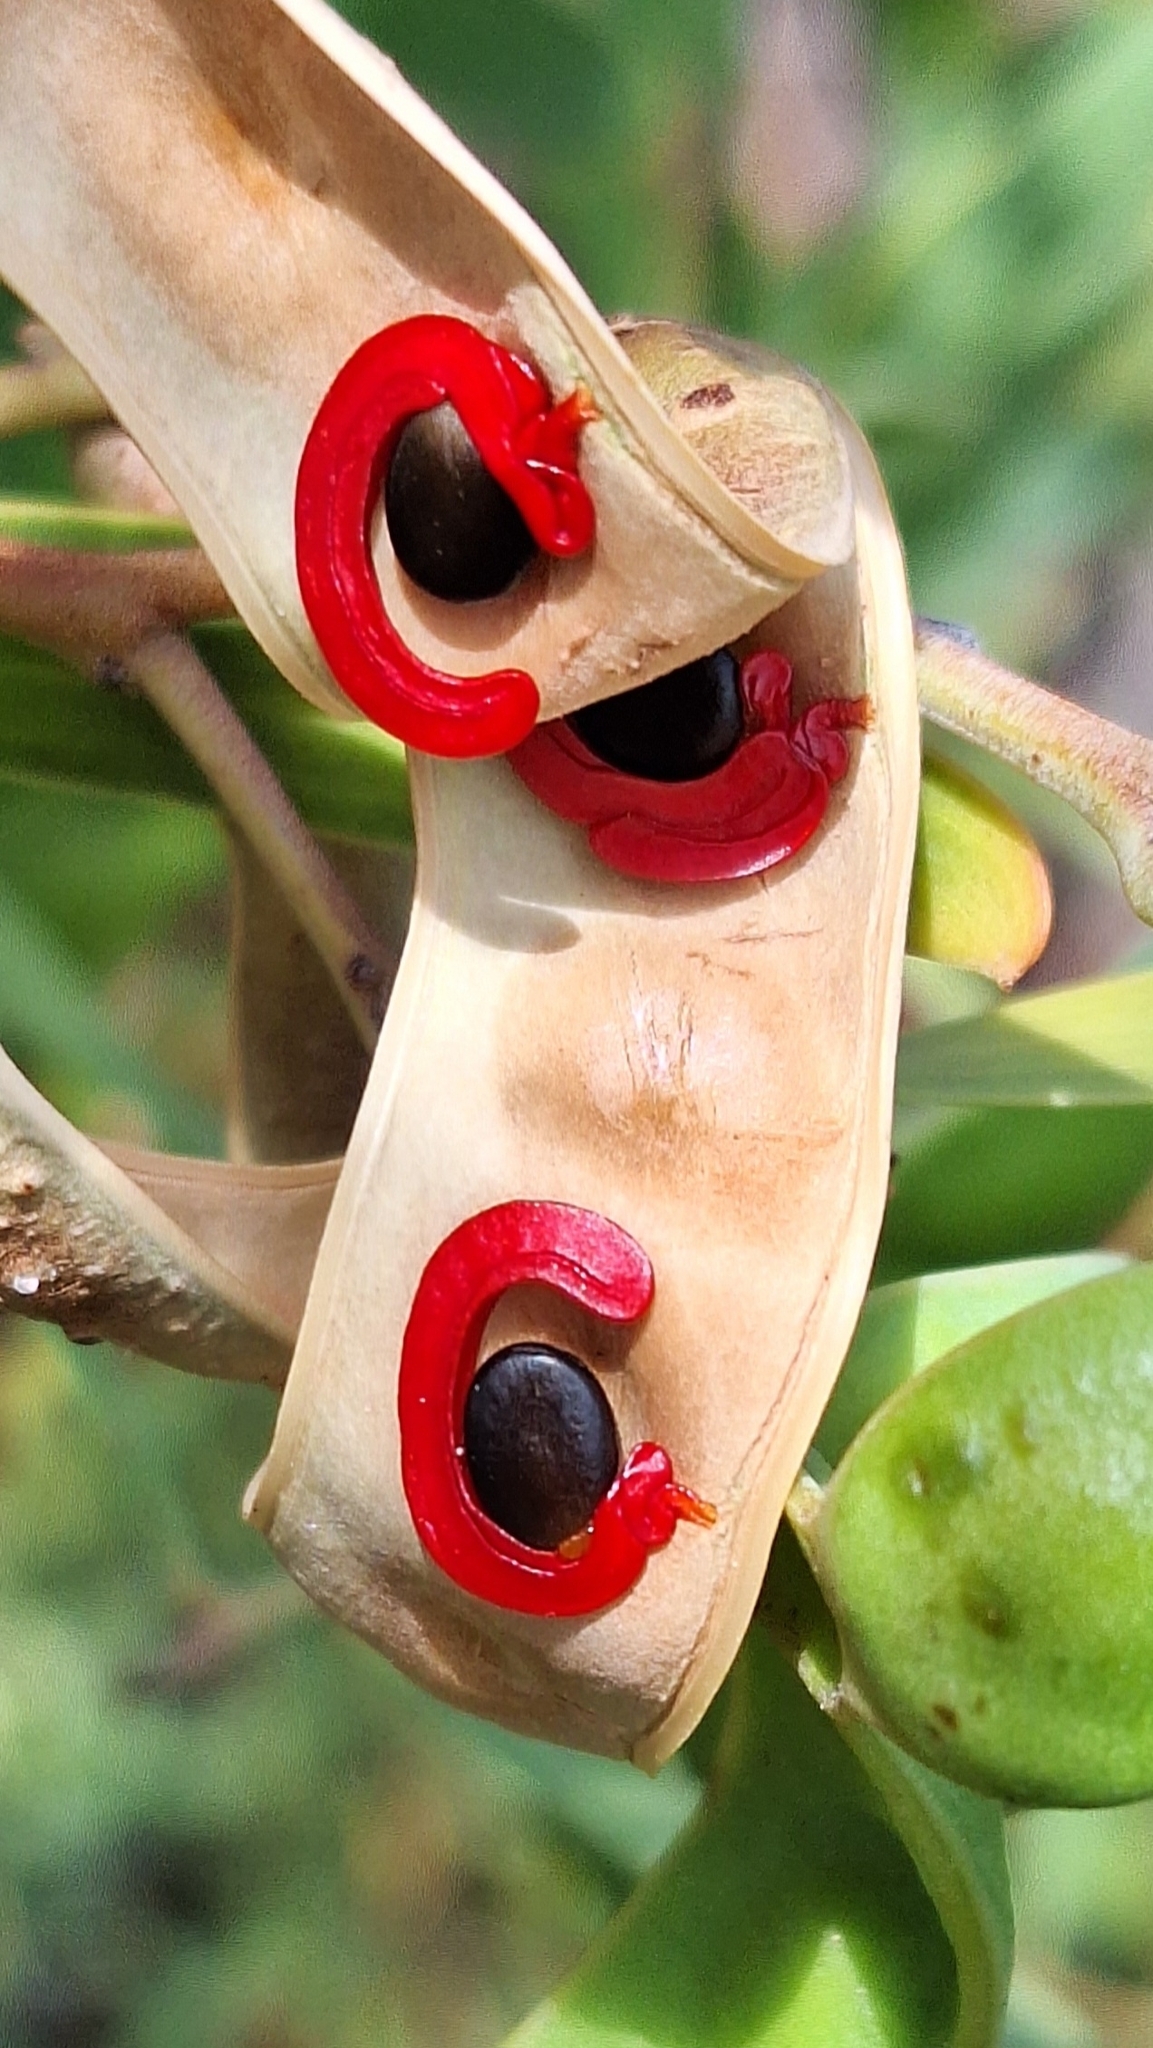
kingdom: Plantae
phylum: Tracheophyta
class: Magnoliopsida
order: Fabales
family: Fabaceae
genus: Acacia
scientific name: Acacia cyclops
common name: Coastal wattle
